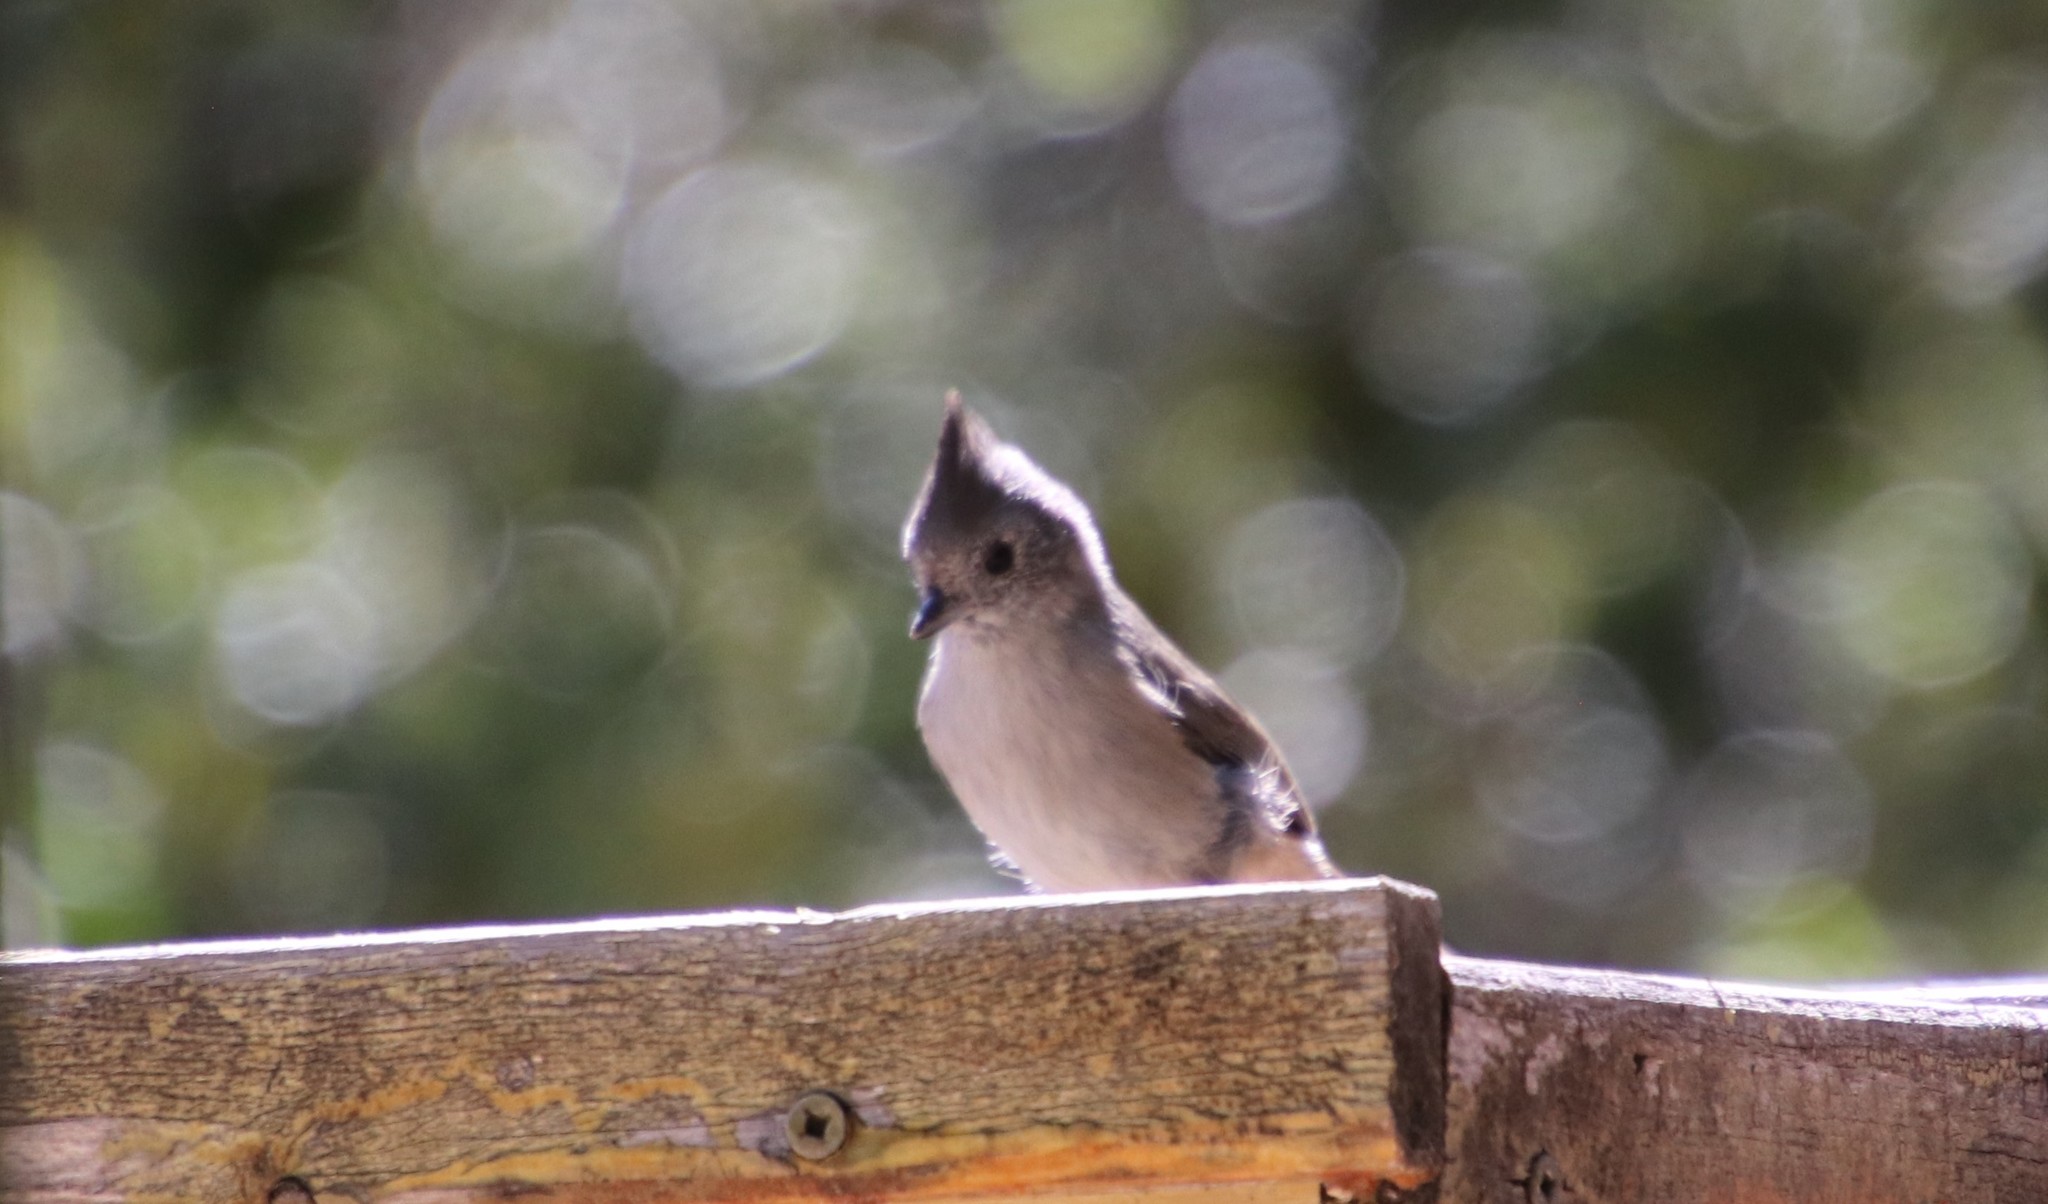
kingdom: Animalia
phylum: Chordata
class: Aves
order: Passeriformes
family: Paridae
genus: Baeolophus
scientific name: Baeolophus inornatus
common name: Oak titmouse
